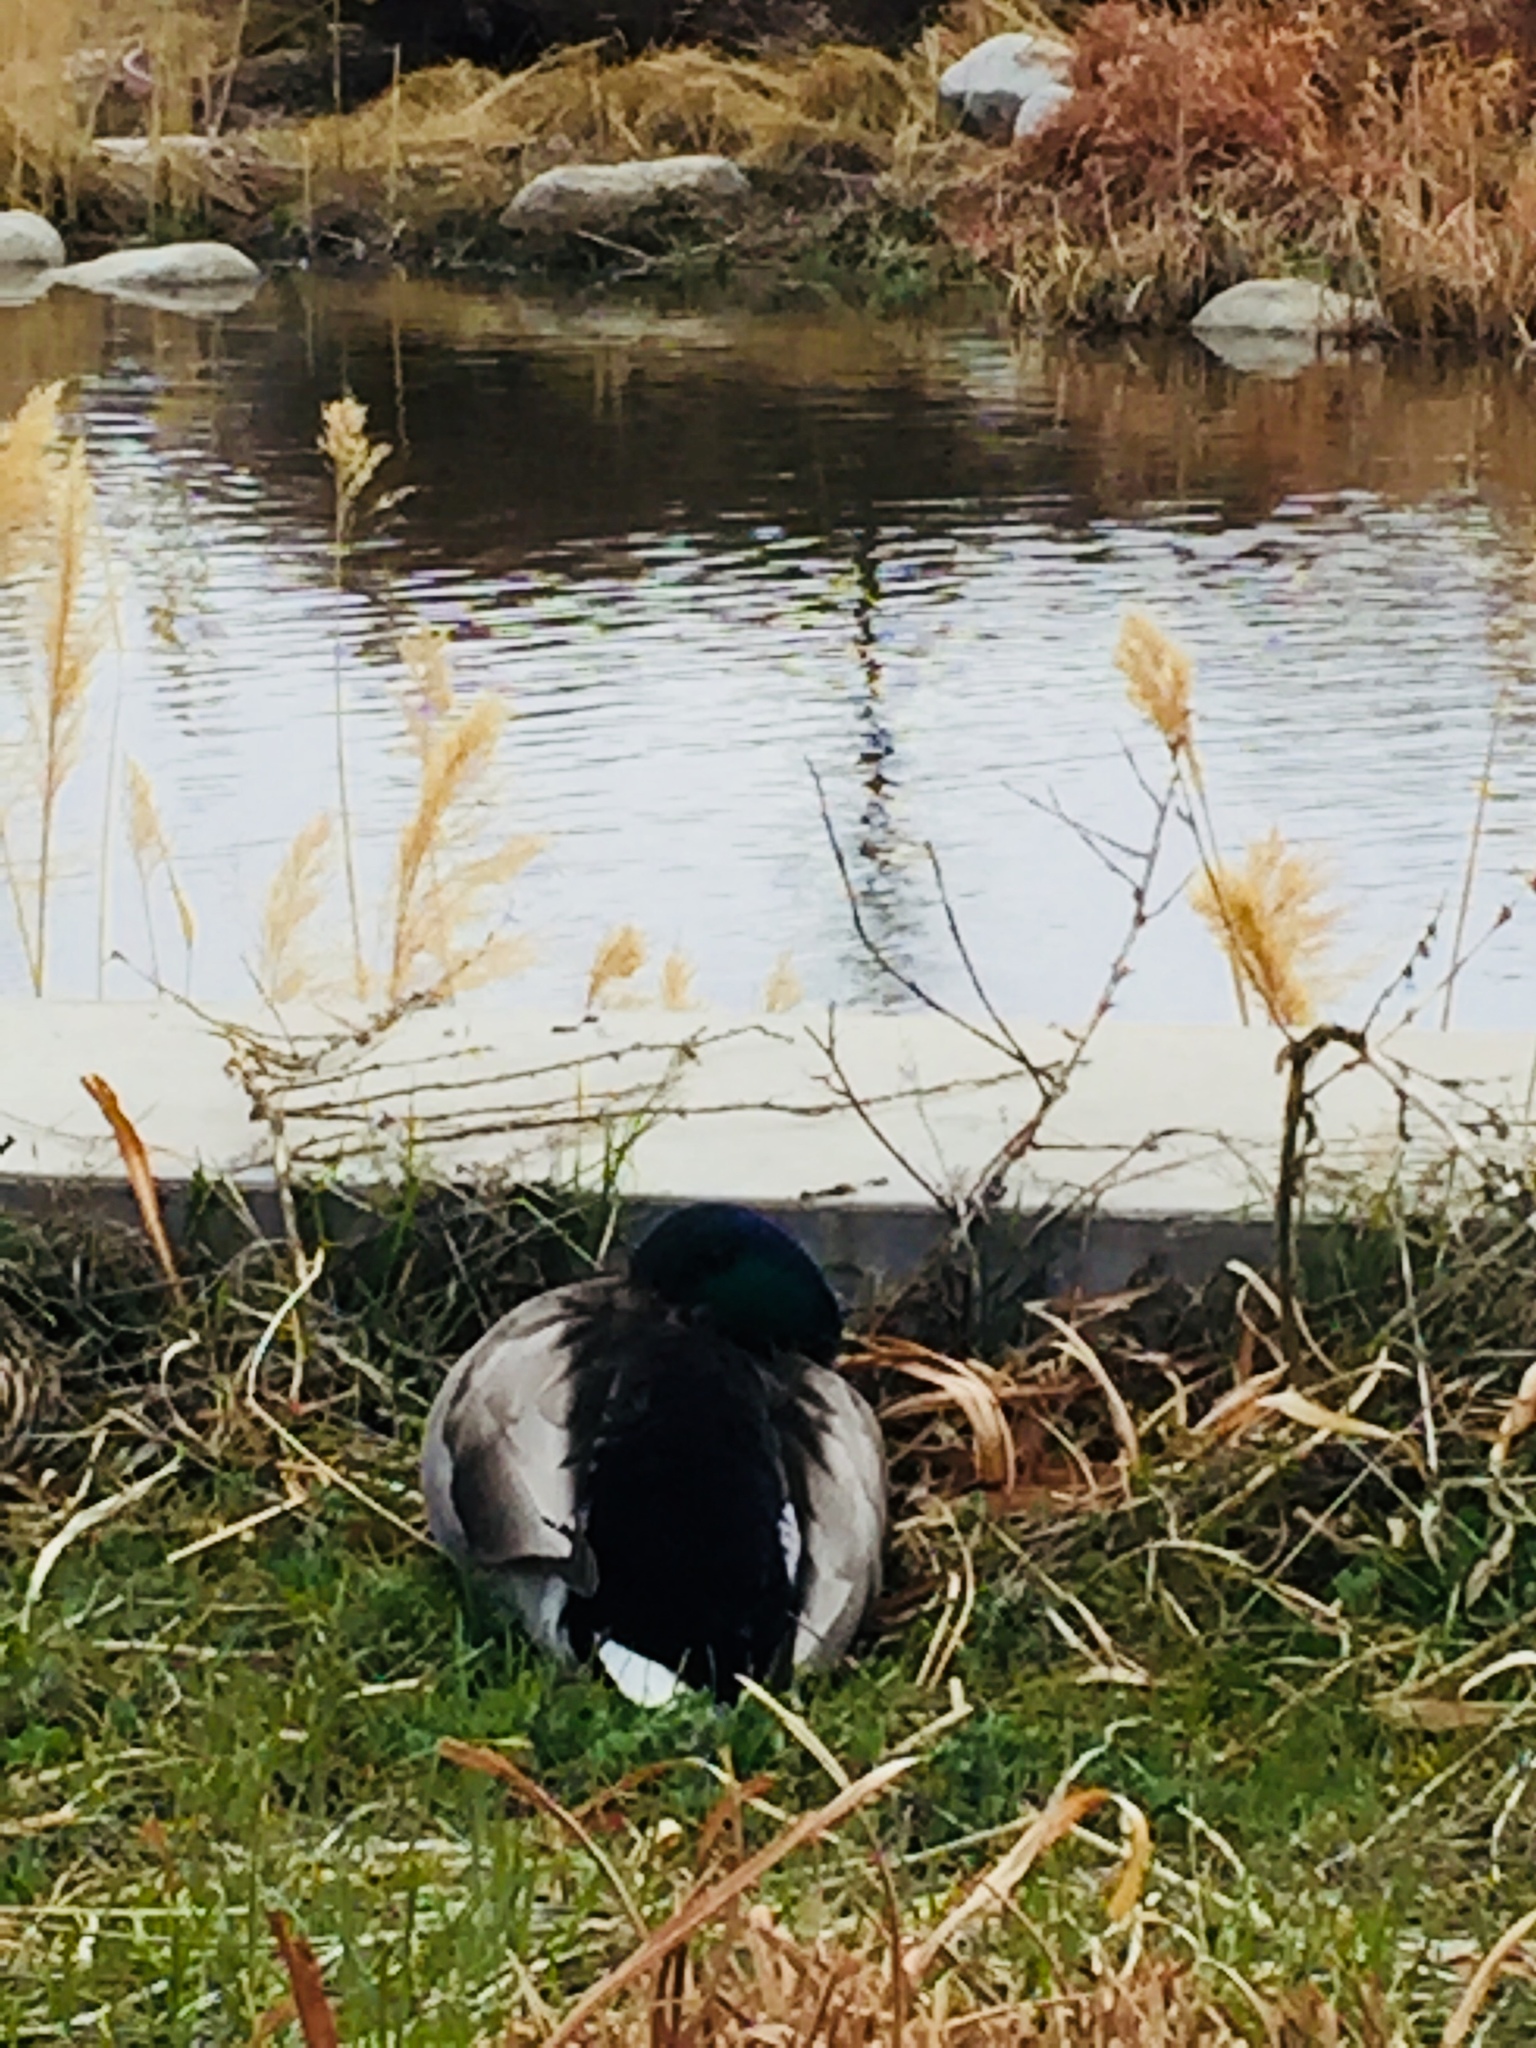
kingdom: Animalia
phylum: Chordata
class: Aves
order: Anseriformes
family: Anatidae
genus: Anas
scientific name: Anas platyrhynchos
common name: Mallard
